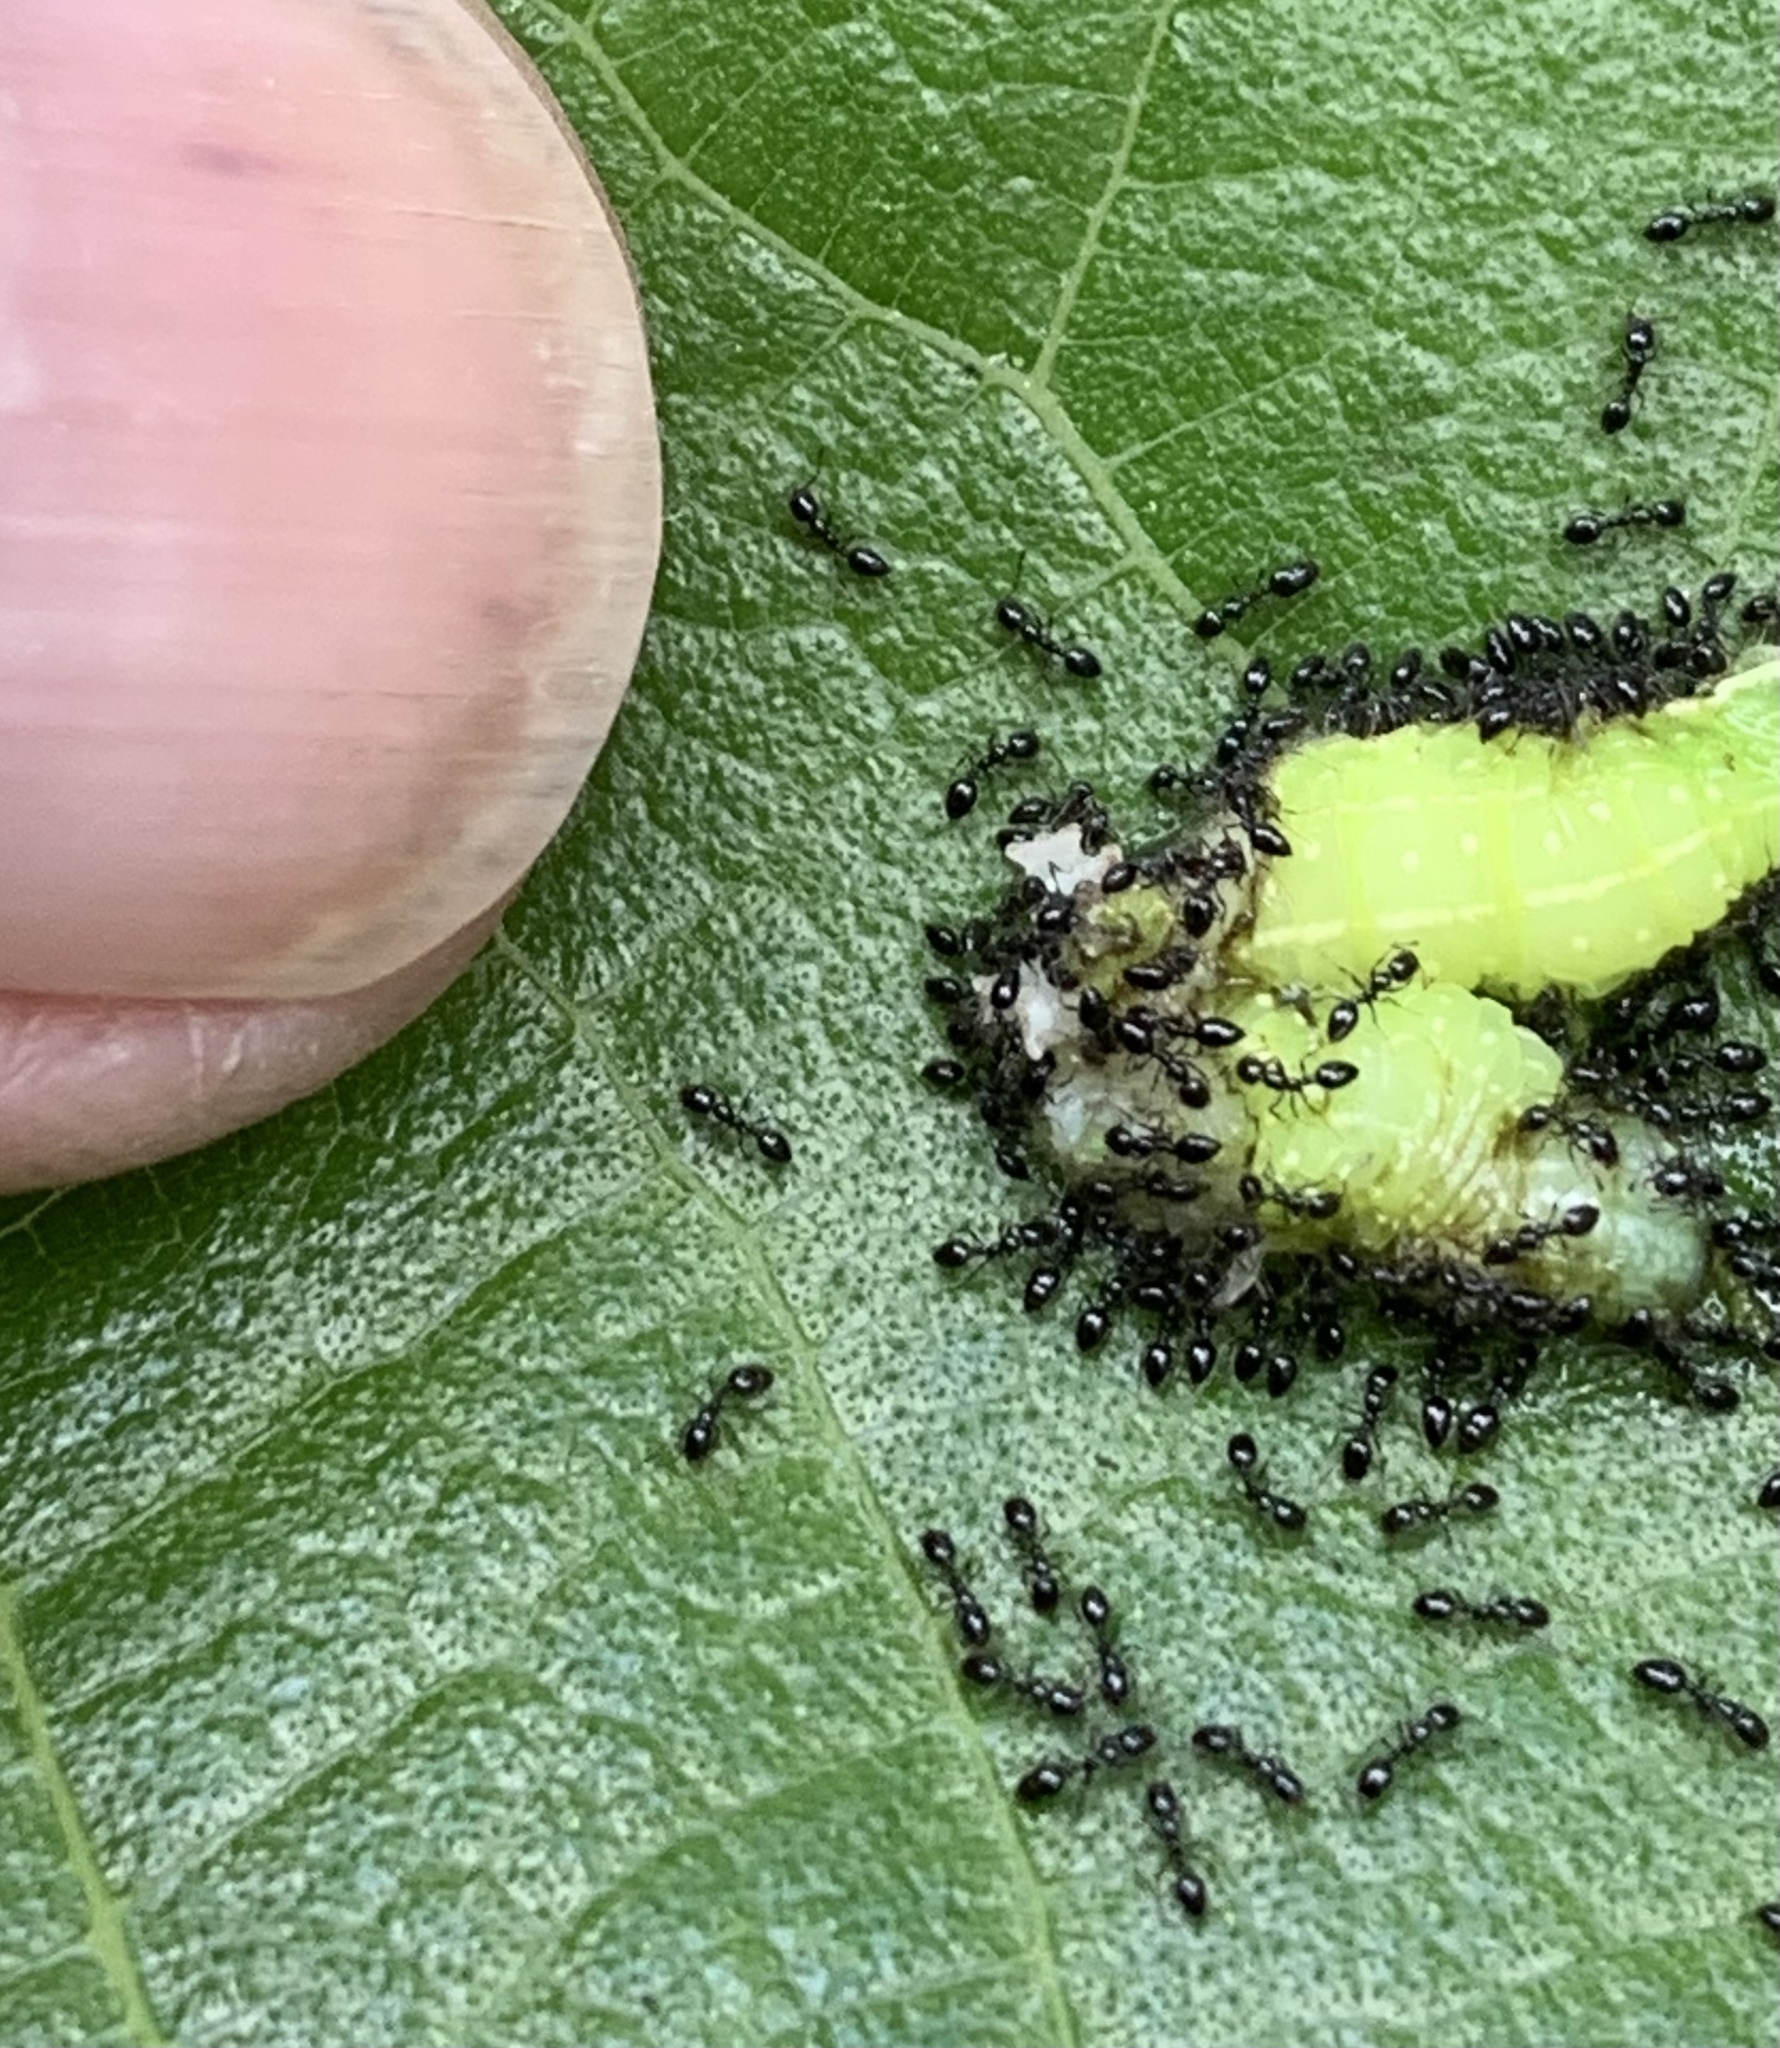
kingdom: Animalia
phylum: Arthropoda
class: Insecta
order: Hymenoptera
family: Formicidae
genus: Monomorium
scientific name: Monomorium minimum
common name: Little black ant
